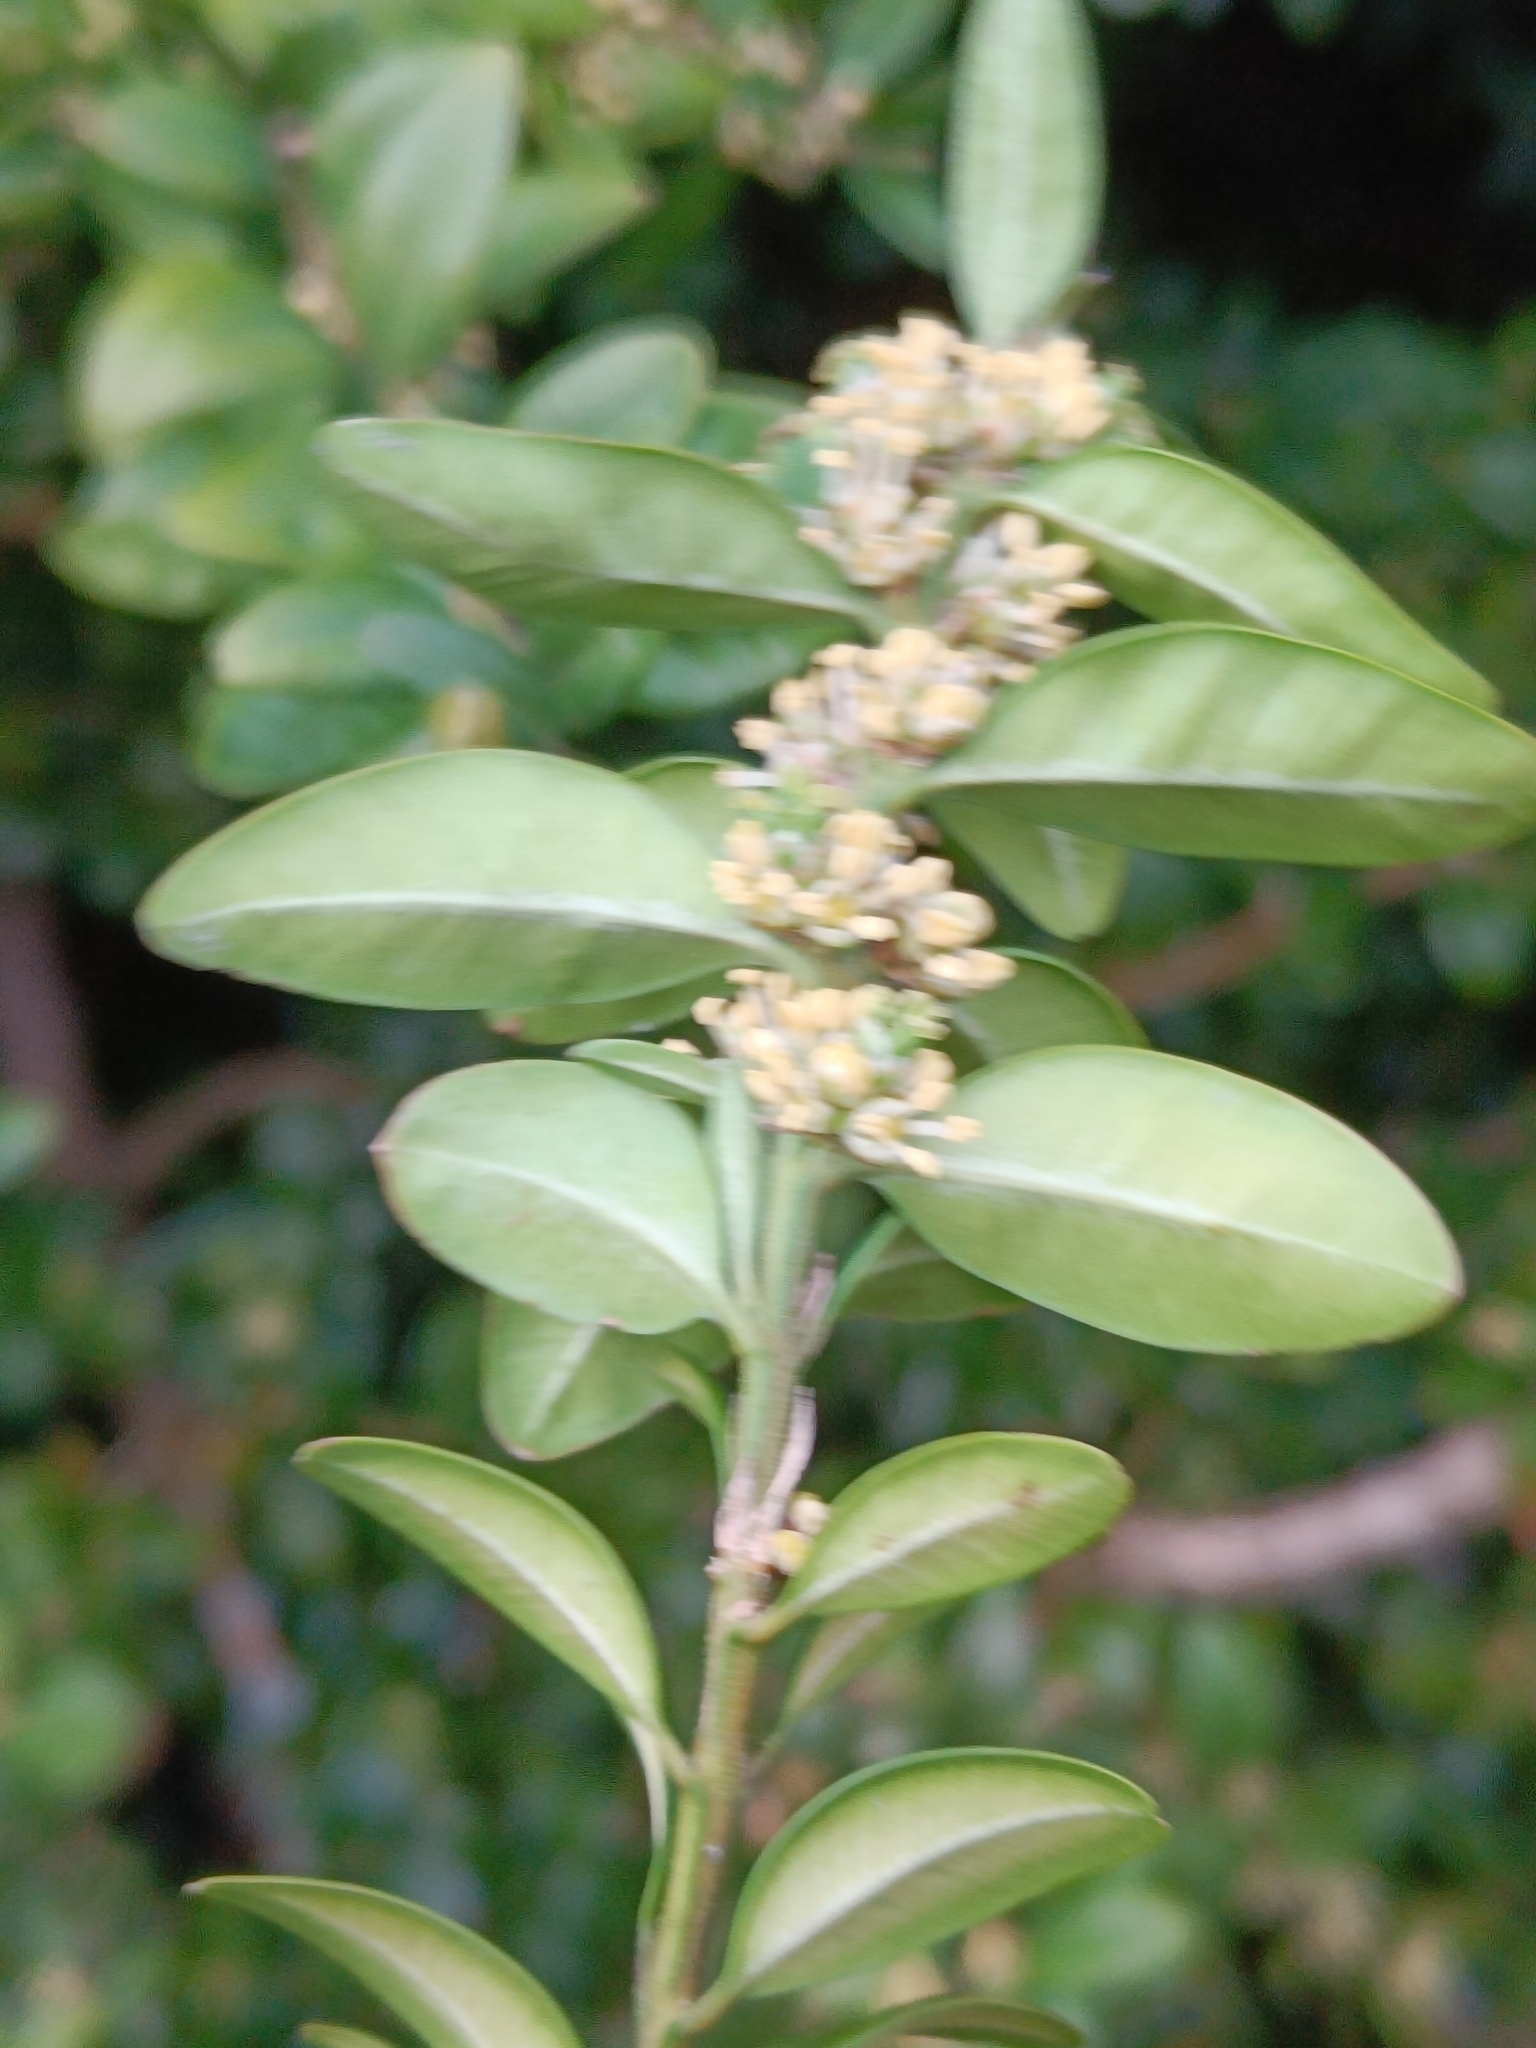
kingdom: Plantae
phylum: Tracheophyta
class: Magnoliopsida
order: Buxales
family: Buxaceae
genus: Buxus
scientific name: Buxus sempervirens
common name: Box
